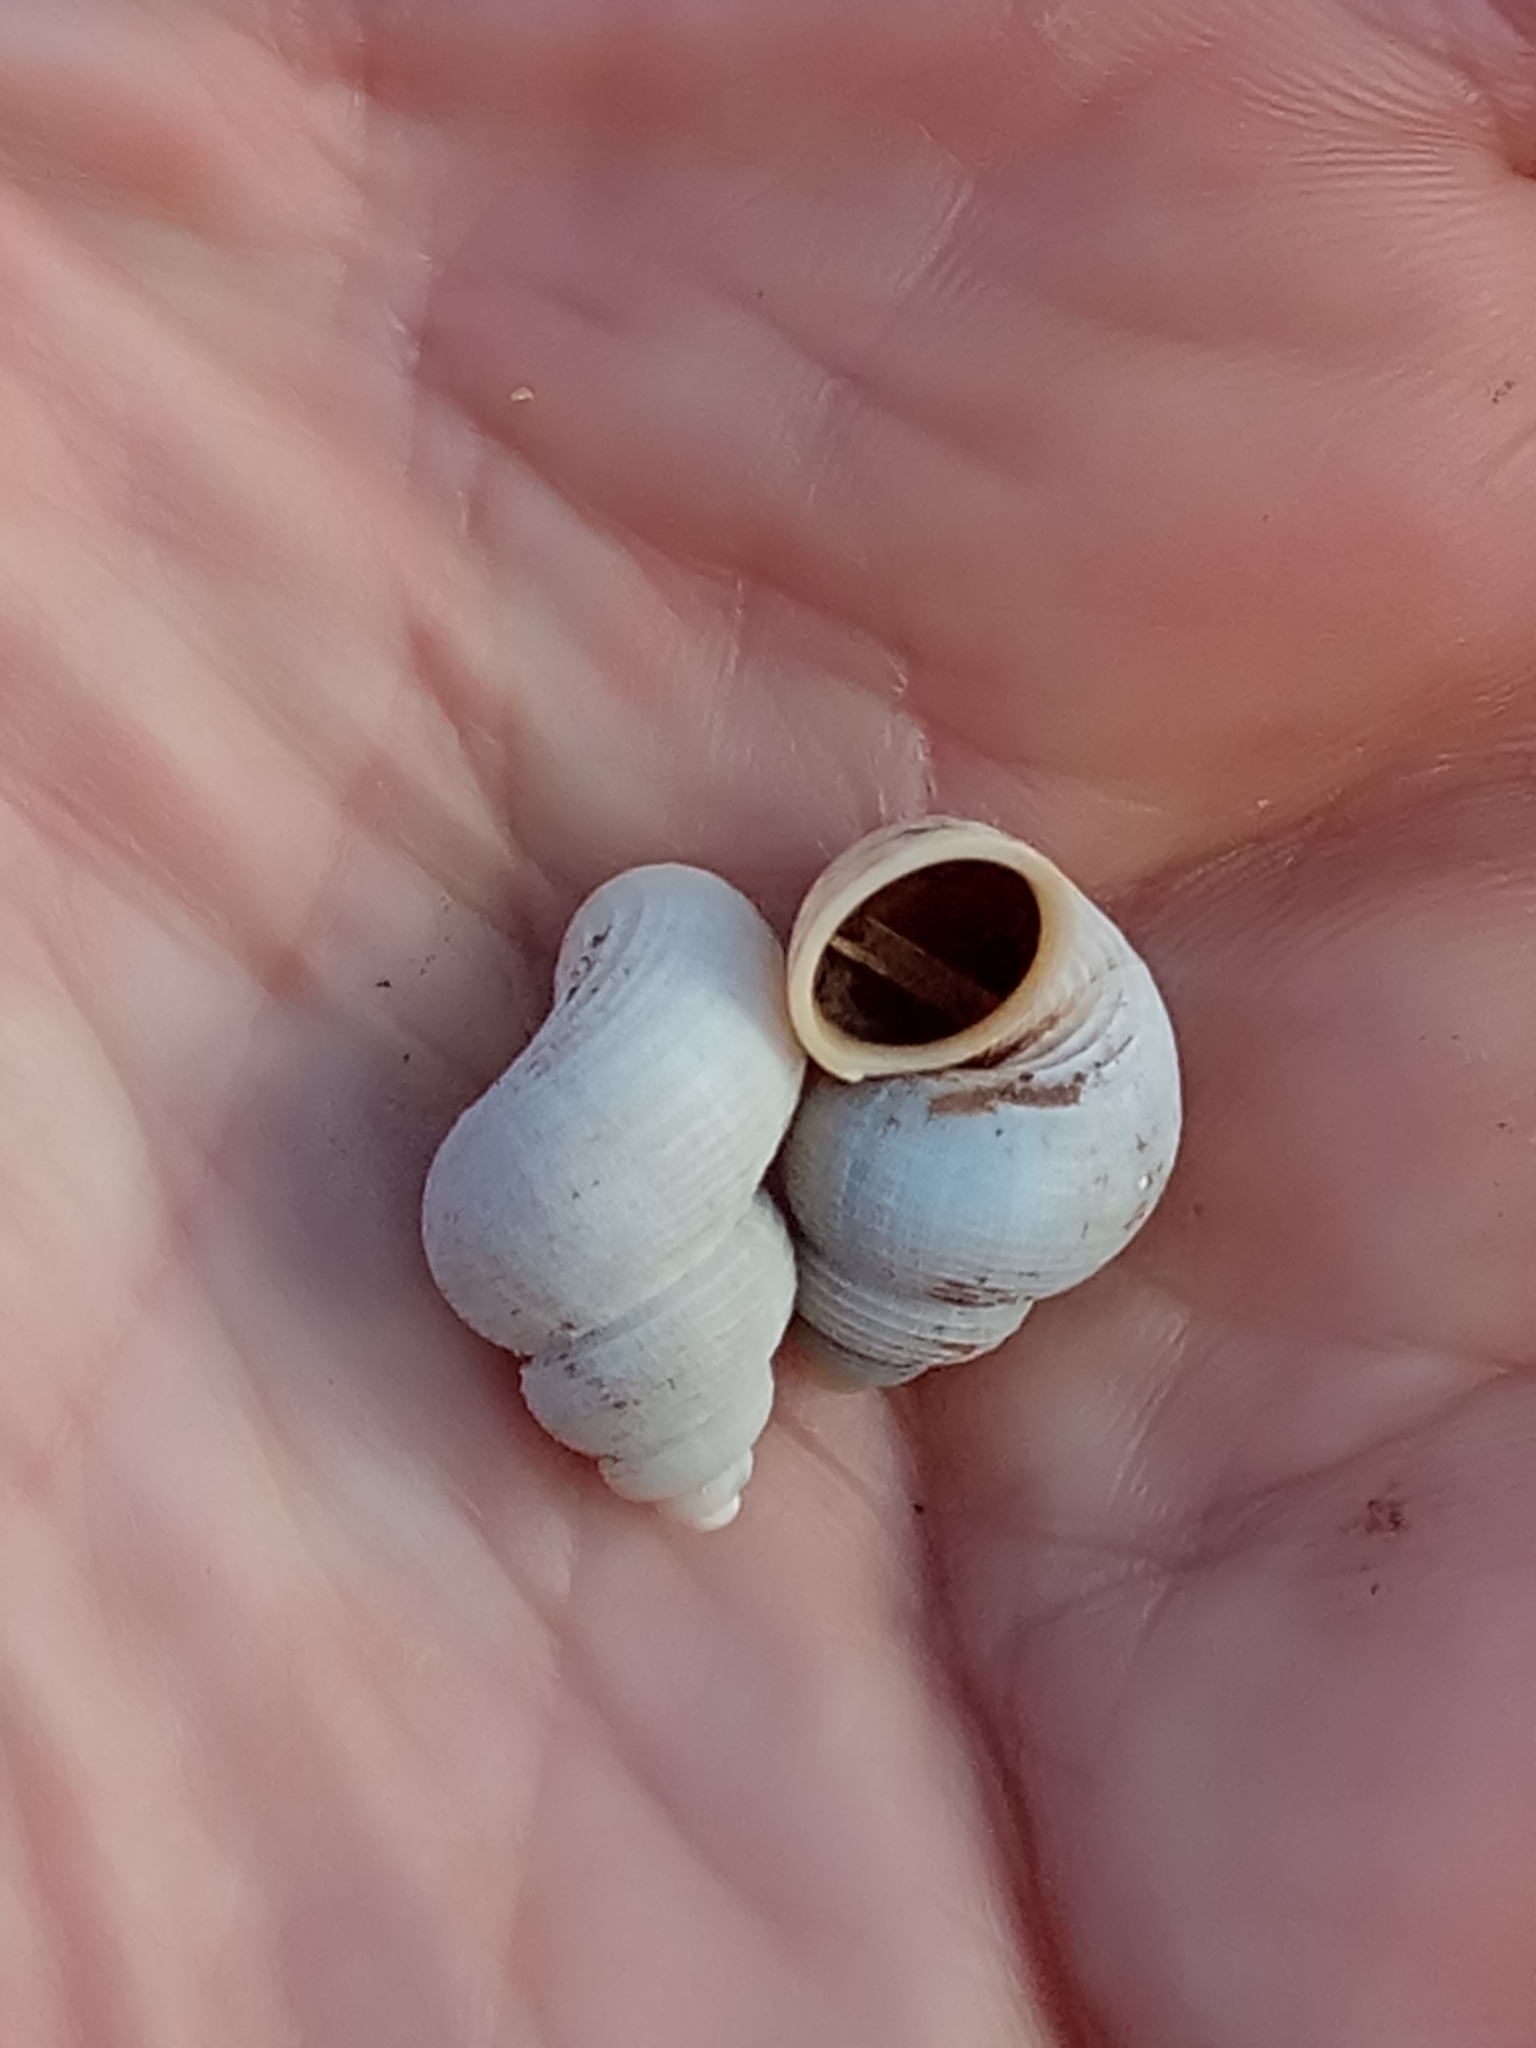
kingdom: Animalia
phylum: Mollusca
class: Gastropoda
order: Littorinimorpha
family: Pomatiidae
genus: Tudorella
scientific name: Tudorella sulcata
